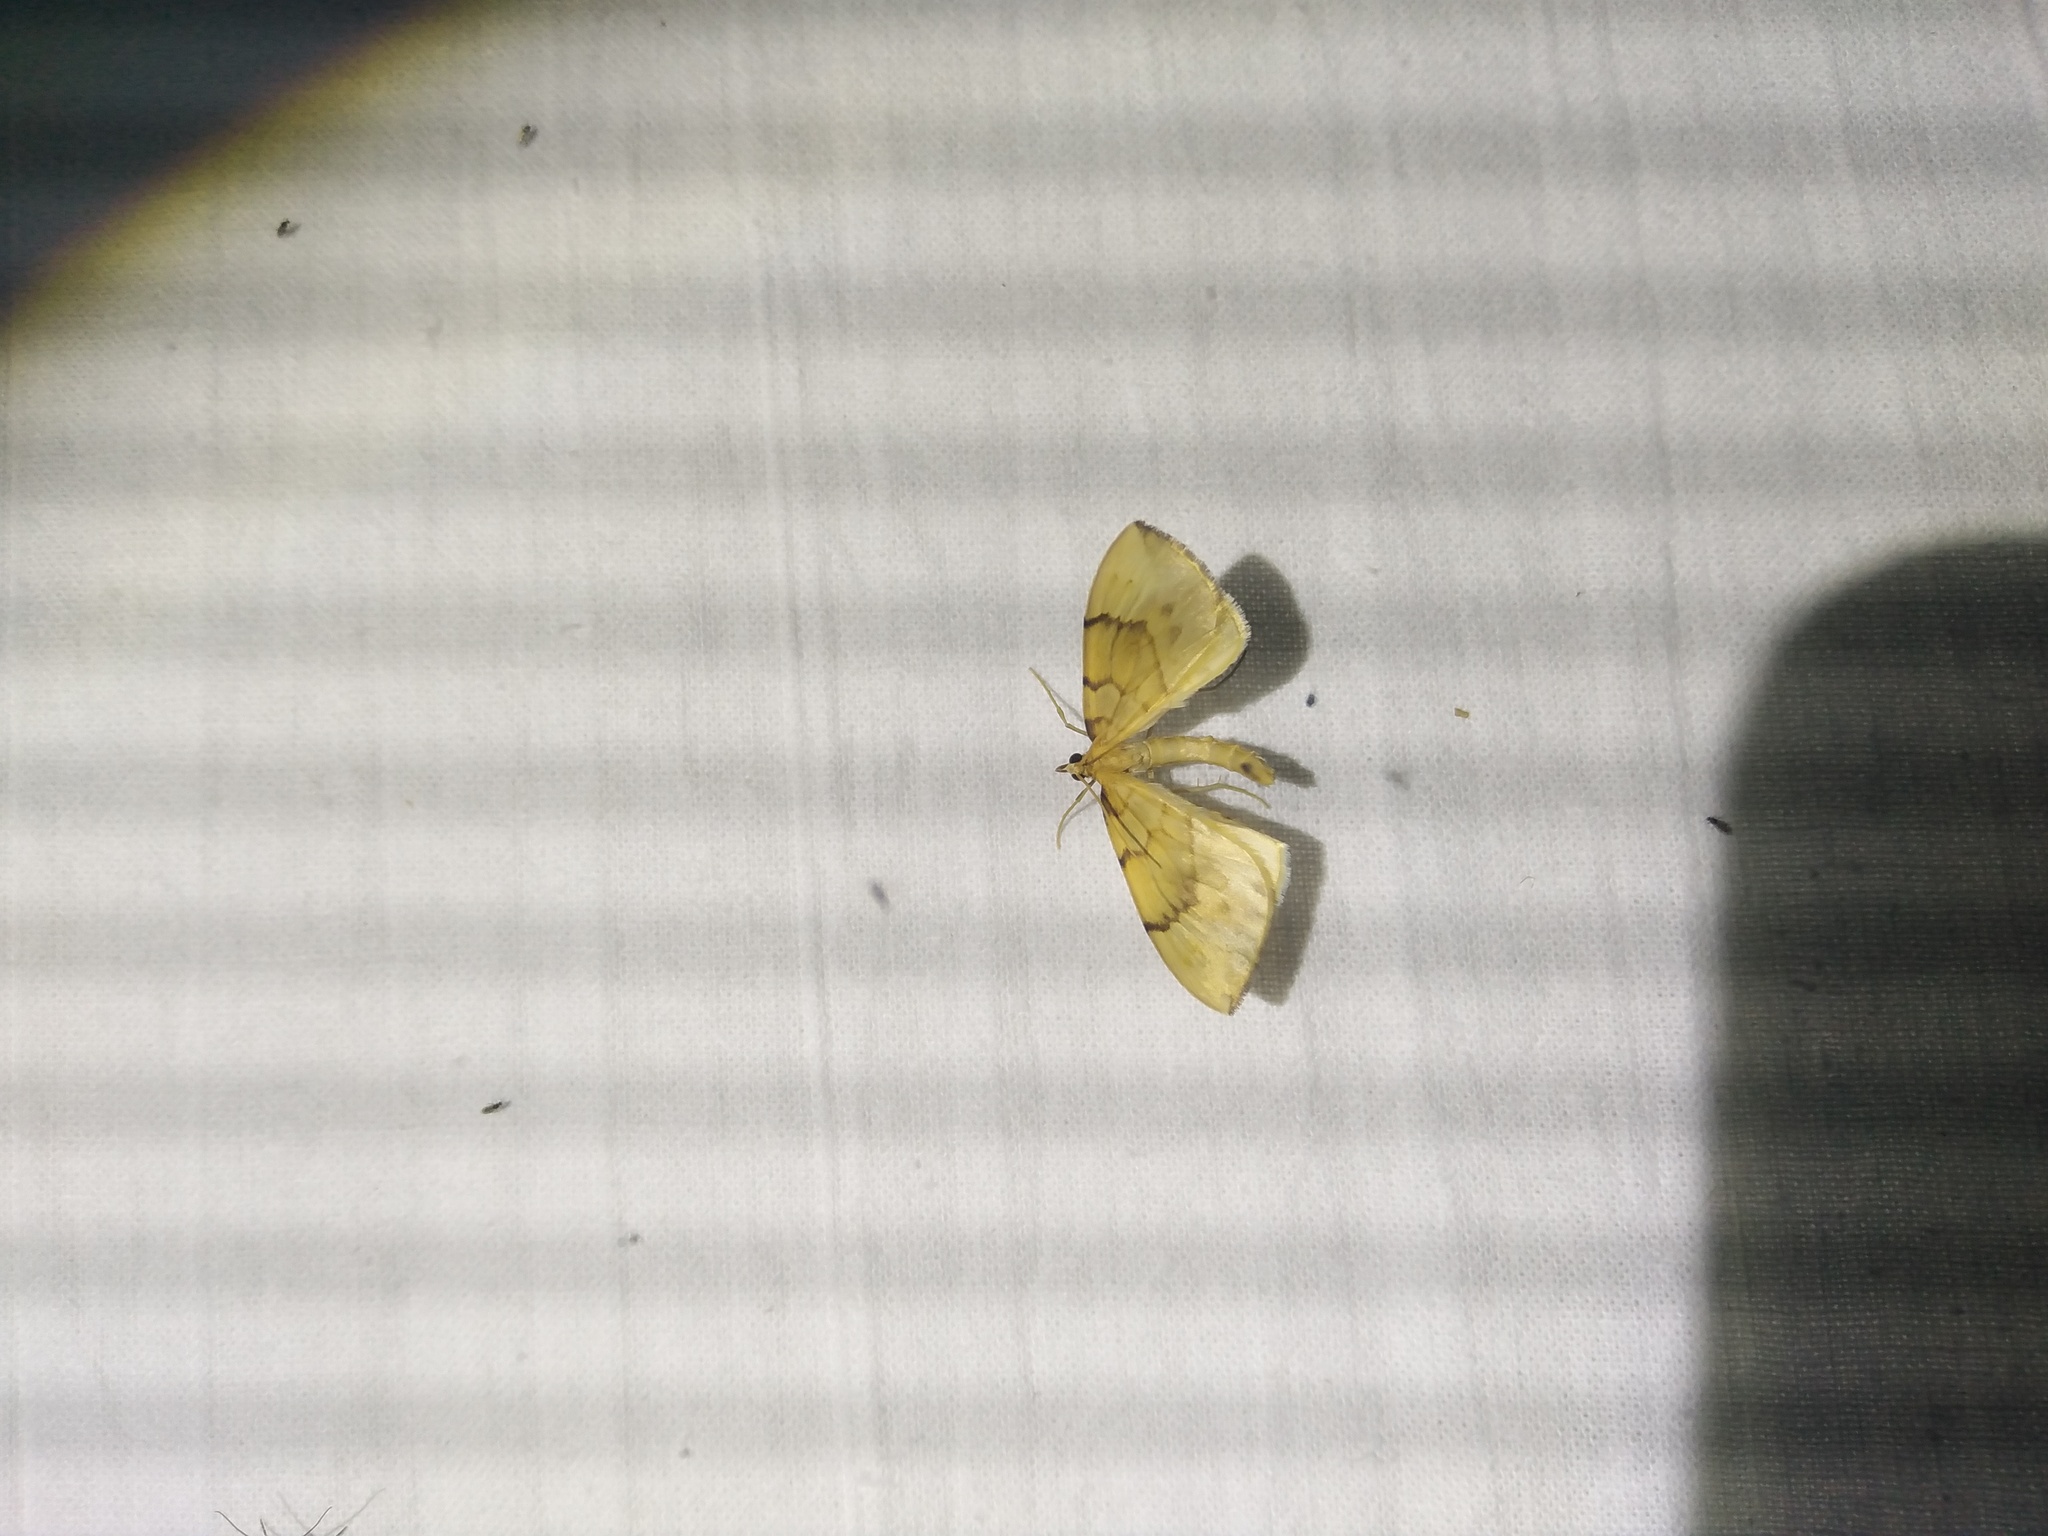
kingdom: Animalia
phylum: Arthropoda
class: Insecta
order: Lepidoptera
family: Geometridae
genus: Eulithis
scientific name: Eulithis pyraliata
